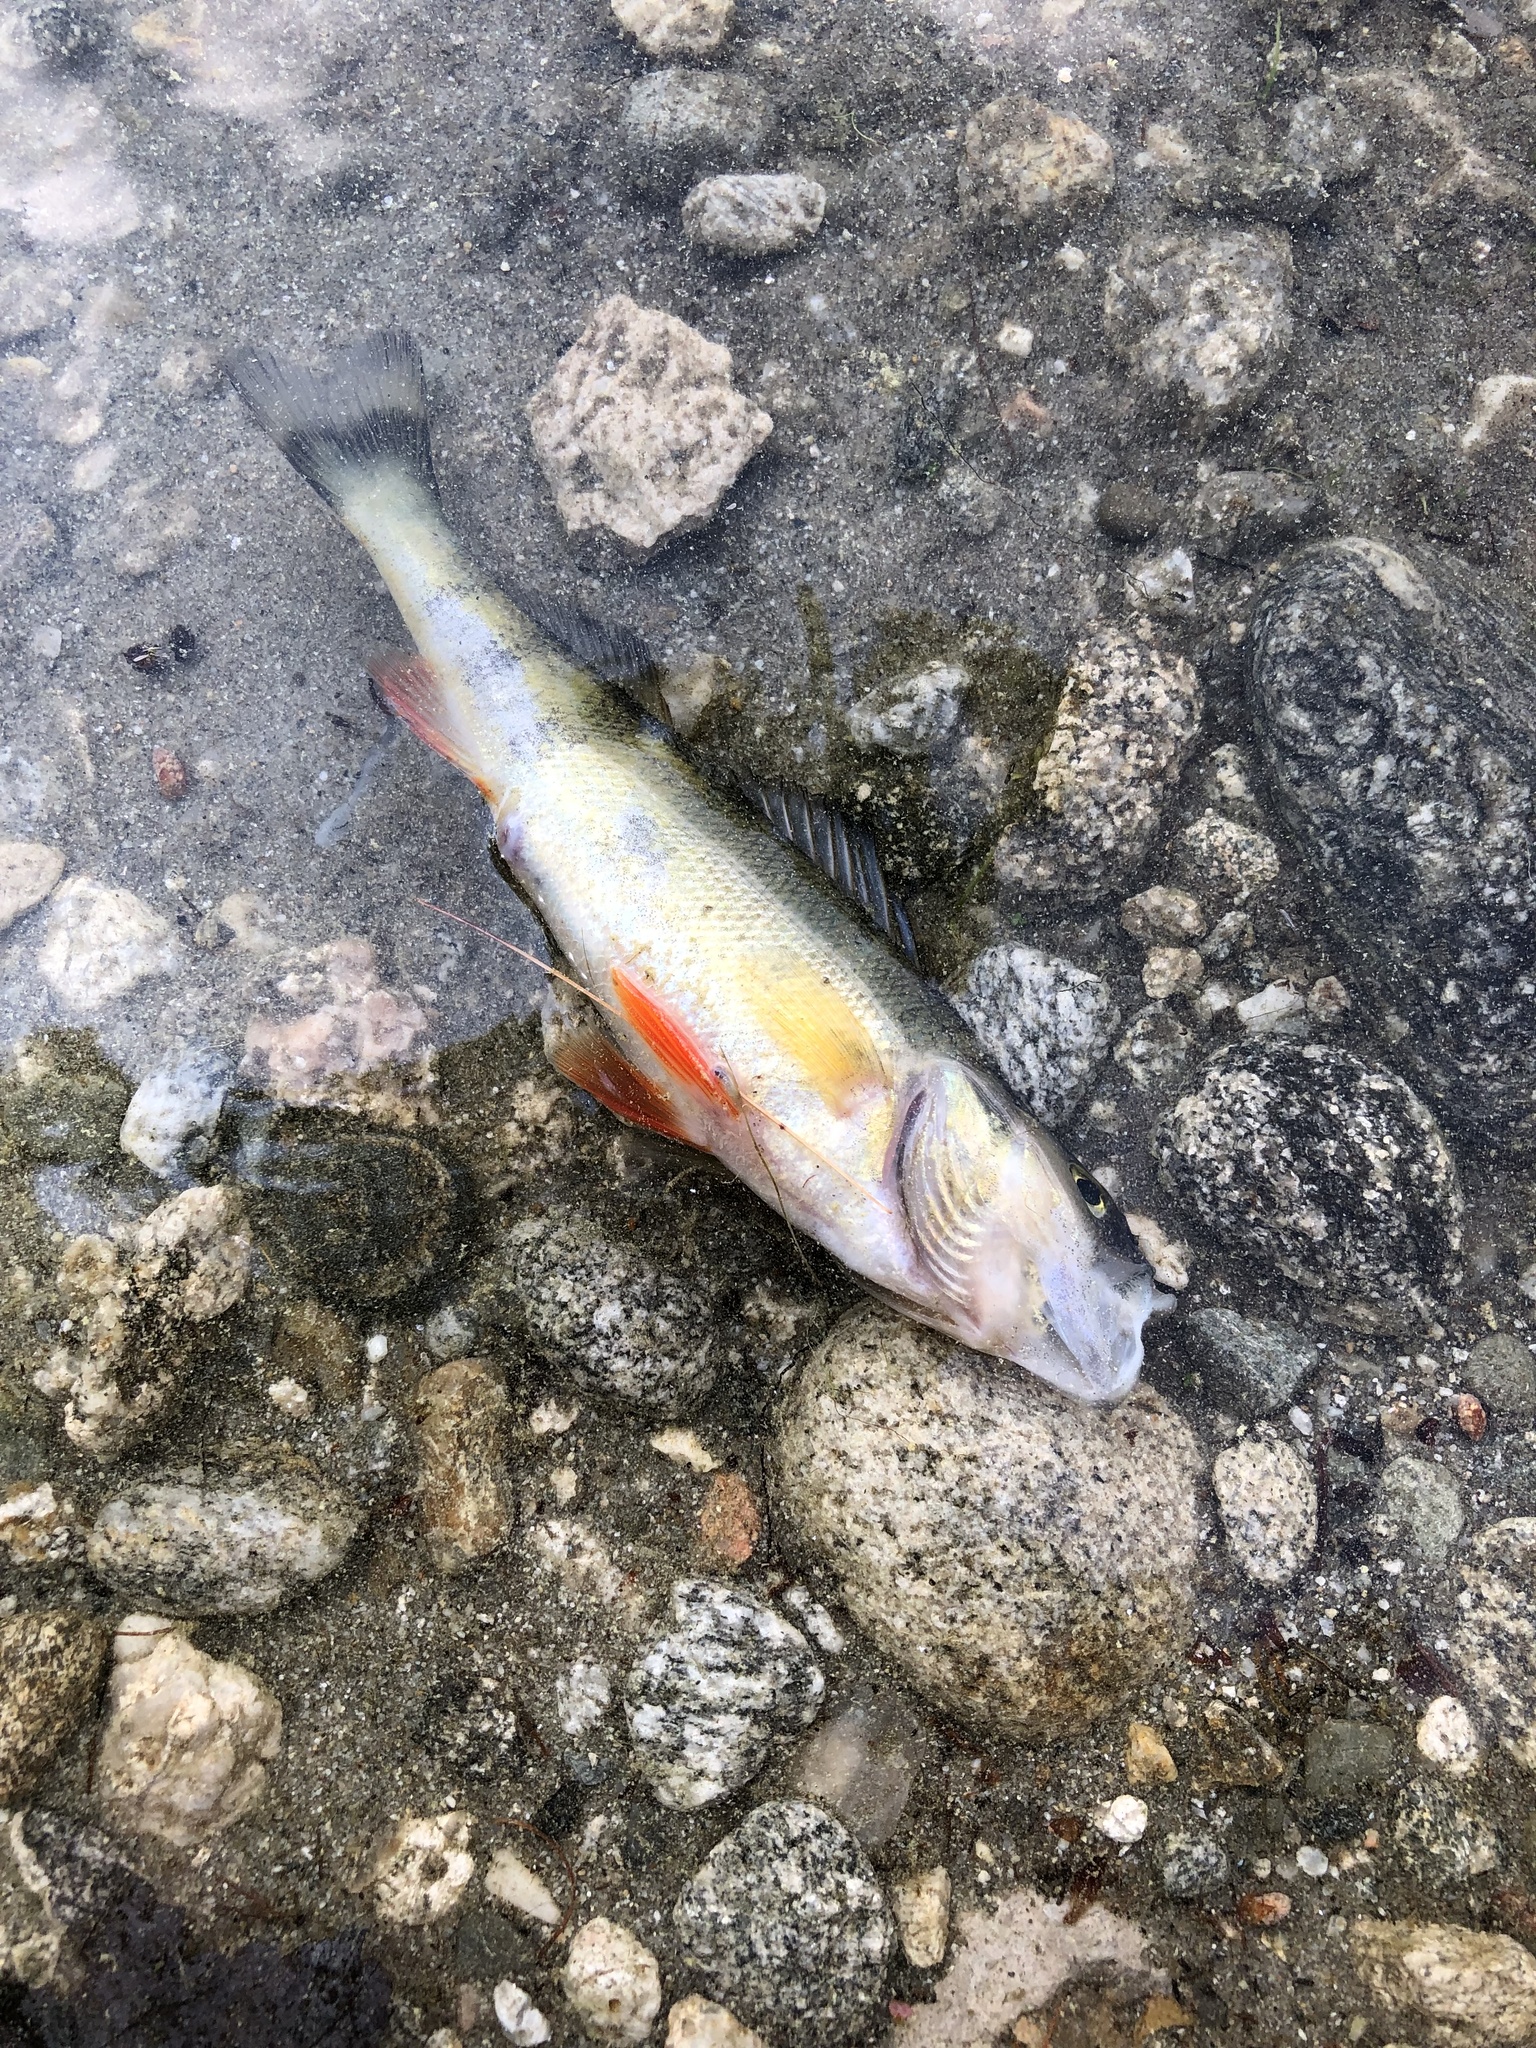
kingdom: Animalia
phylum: Chordata
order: Perciformes
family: Percidae
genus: Perca
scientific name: Perca flavescens
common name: Yellow perch
